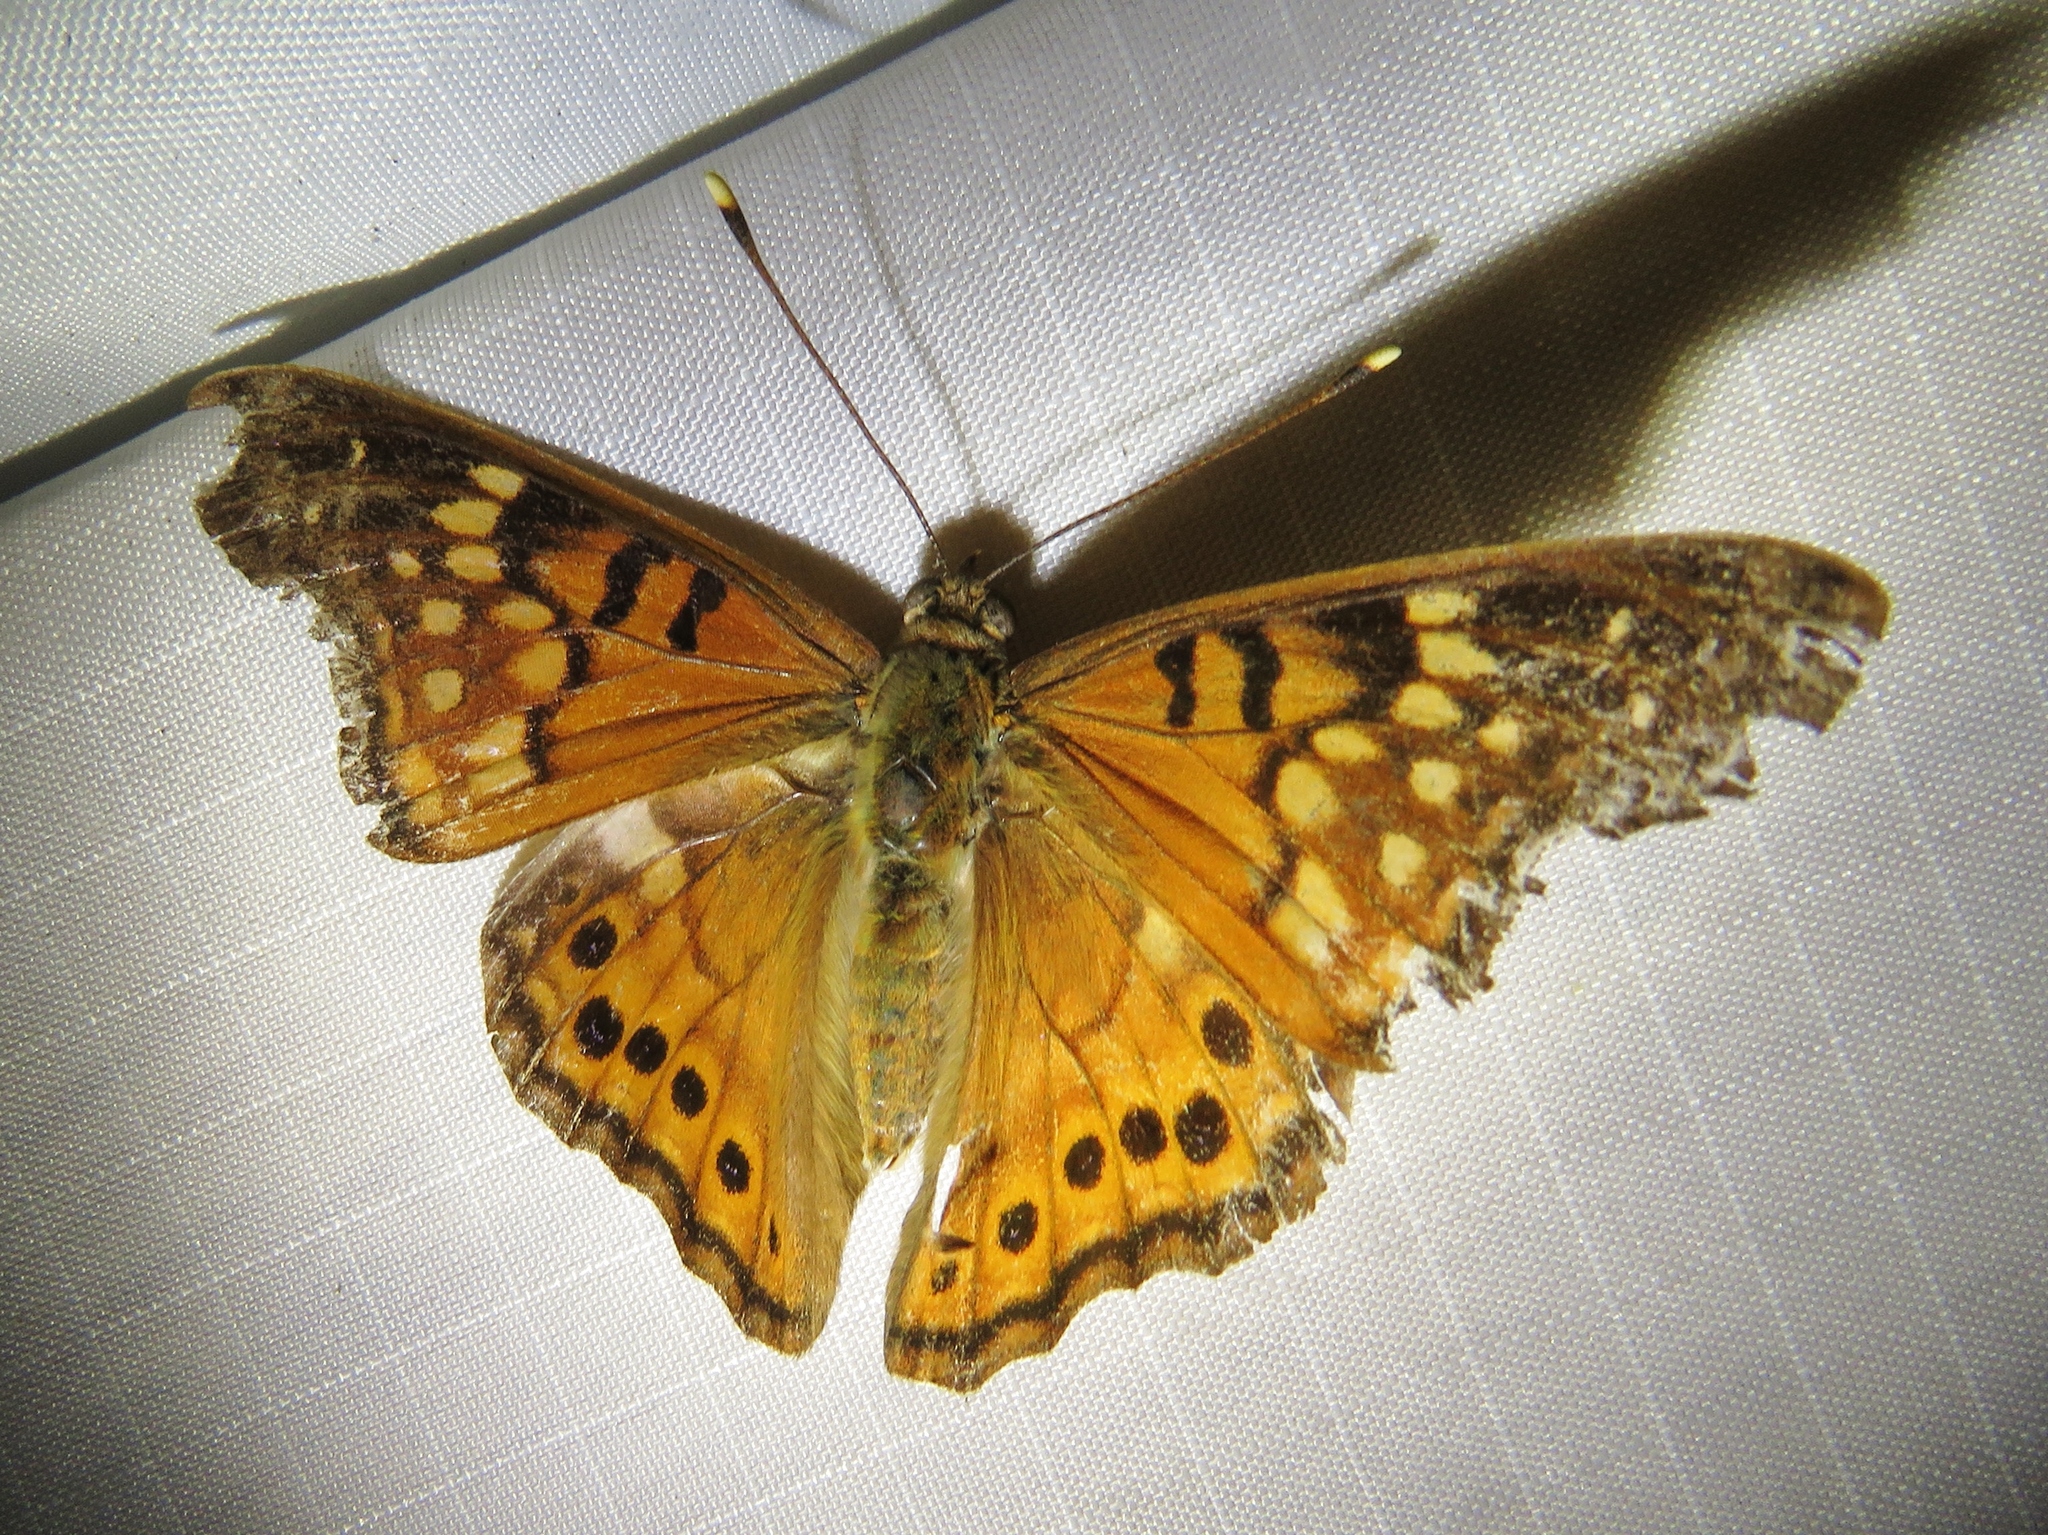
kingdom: Animalia
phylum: Arthropoda
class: Insecta
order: Lepidoptera
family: Nymphalidae
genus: Asterocampa
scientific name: Asterocampa clyton
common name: Tawny emperor
